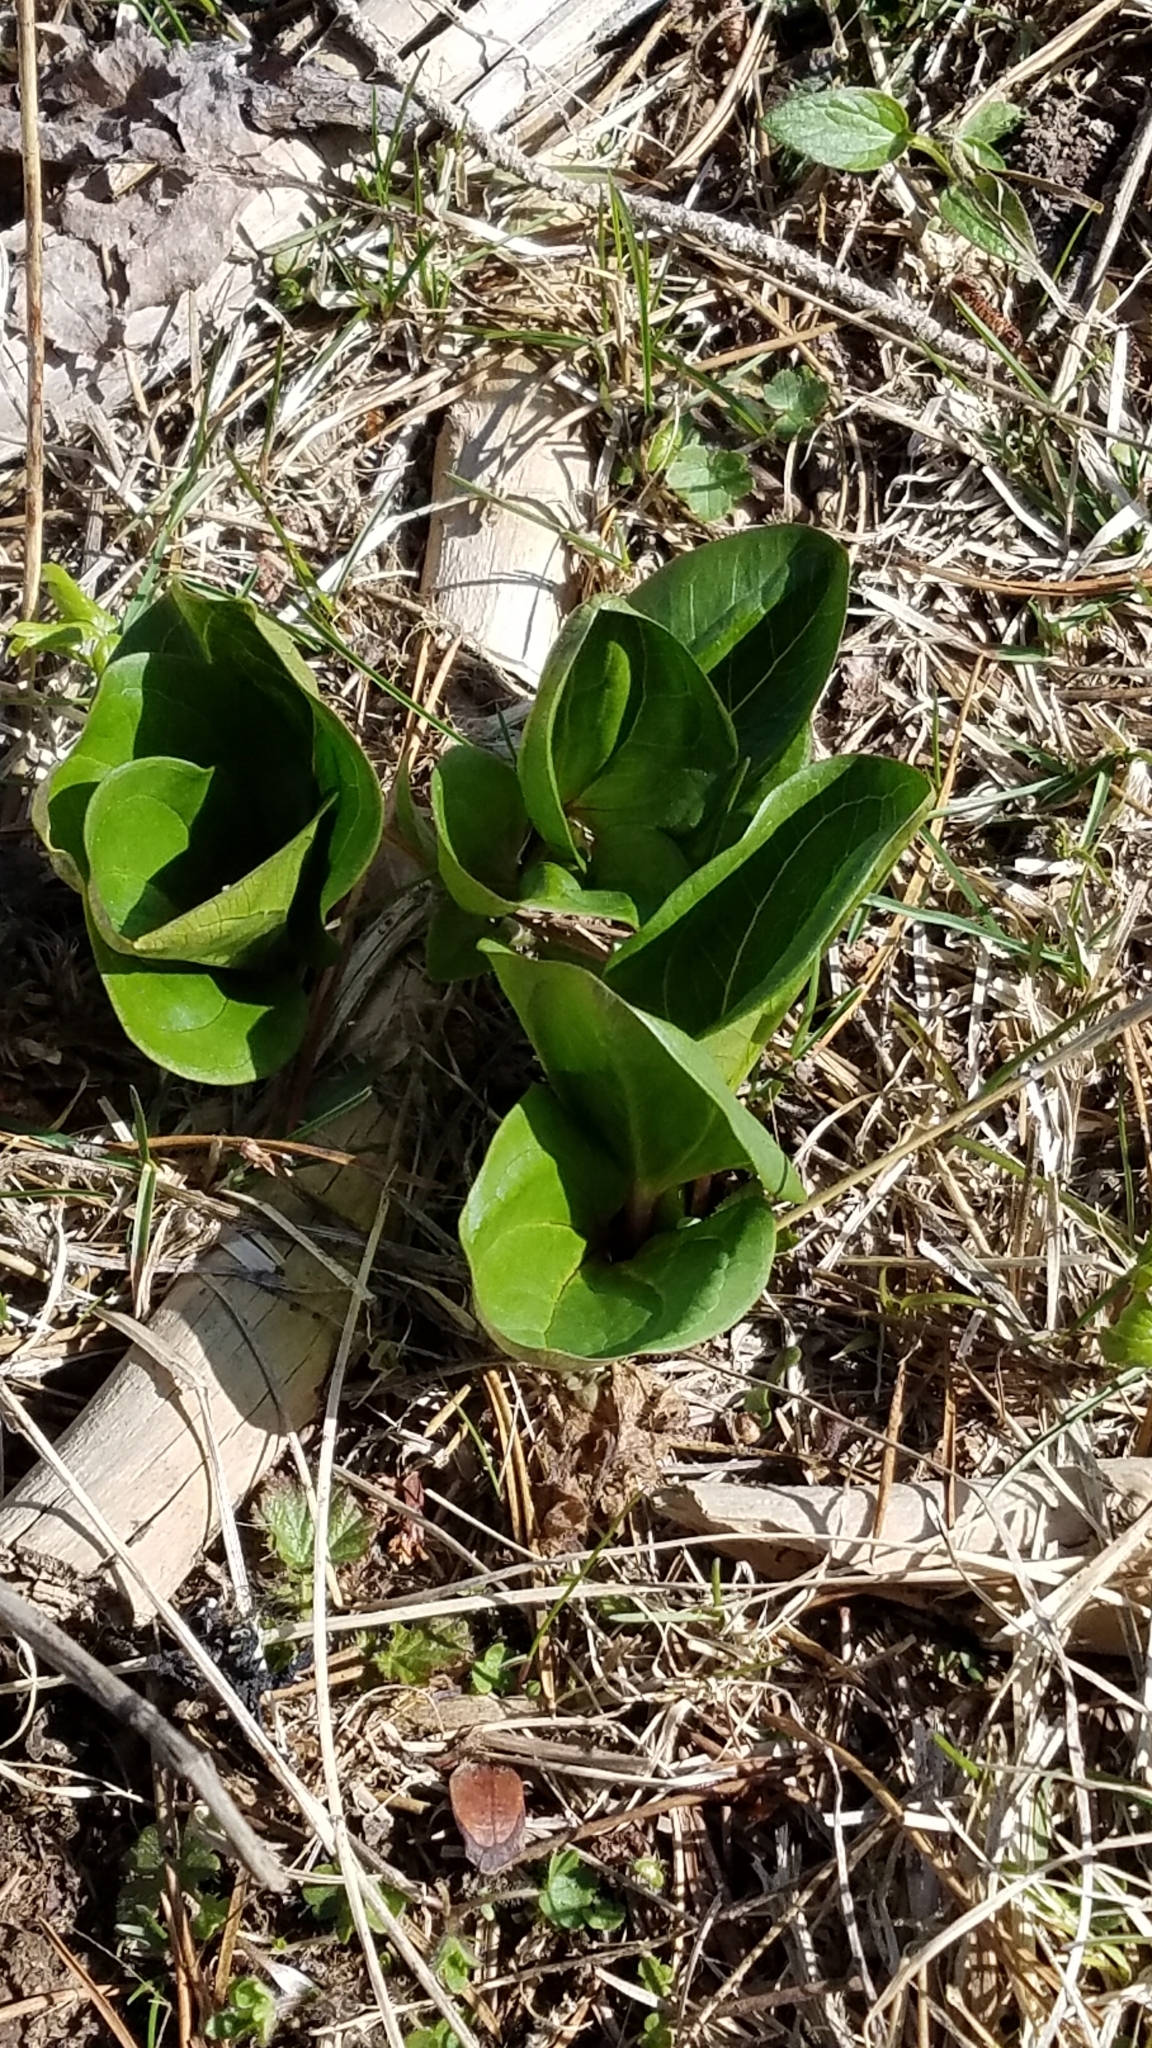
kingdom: Plantae
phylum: Tracheophyta
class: Liliopsida
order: Liliales
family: Melanthiaceae
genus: Trillium
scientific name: Trillium petiolatum
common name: Idaho trillium
